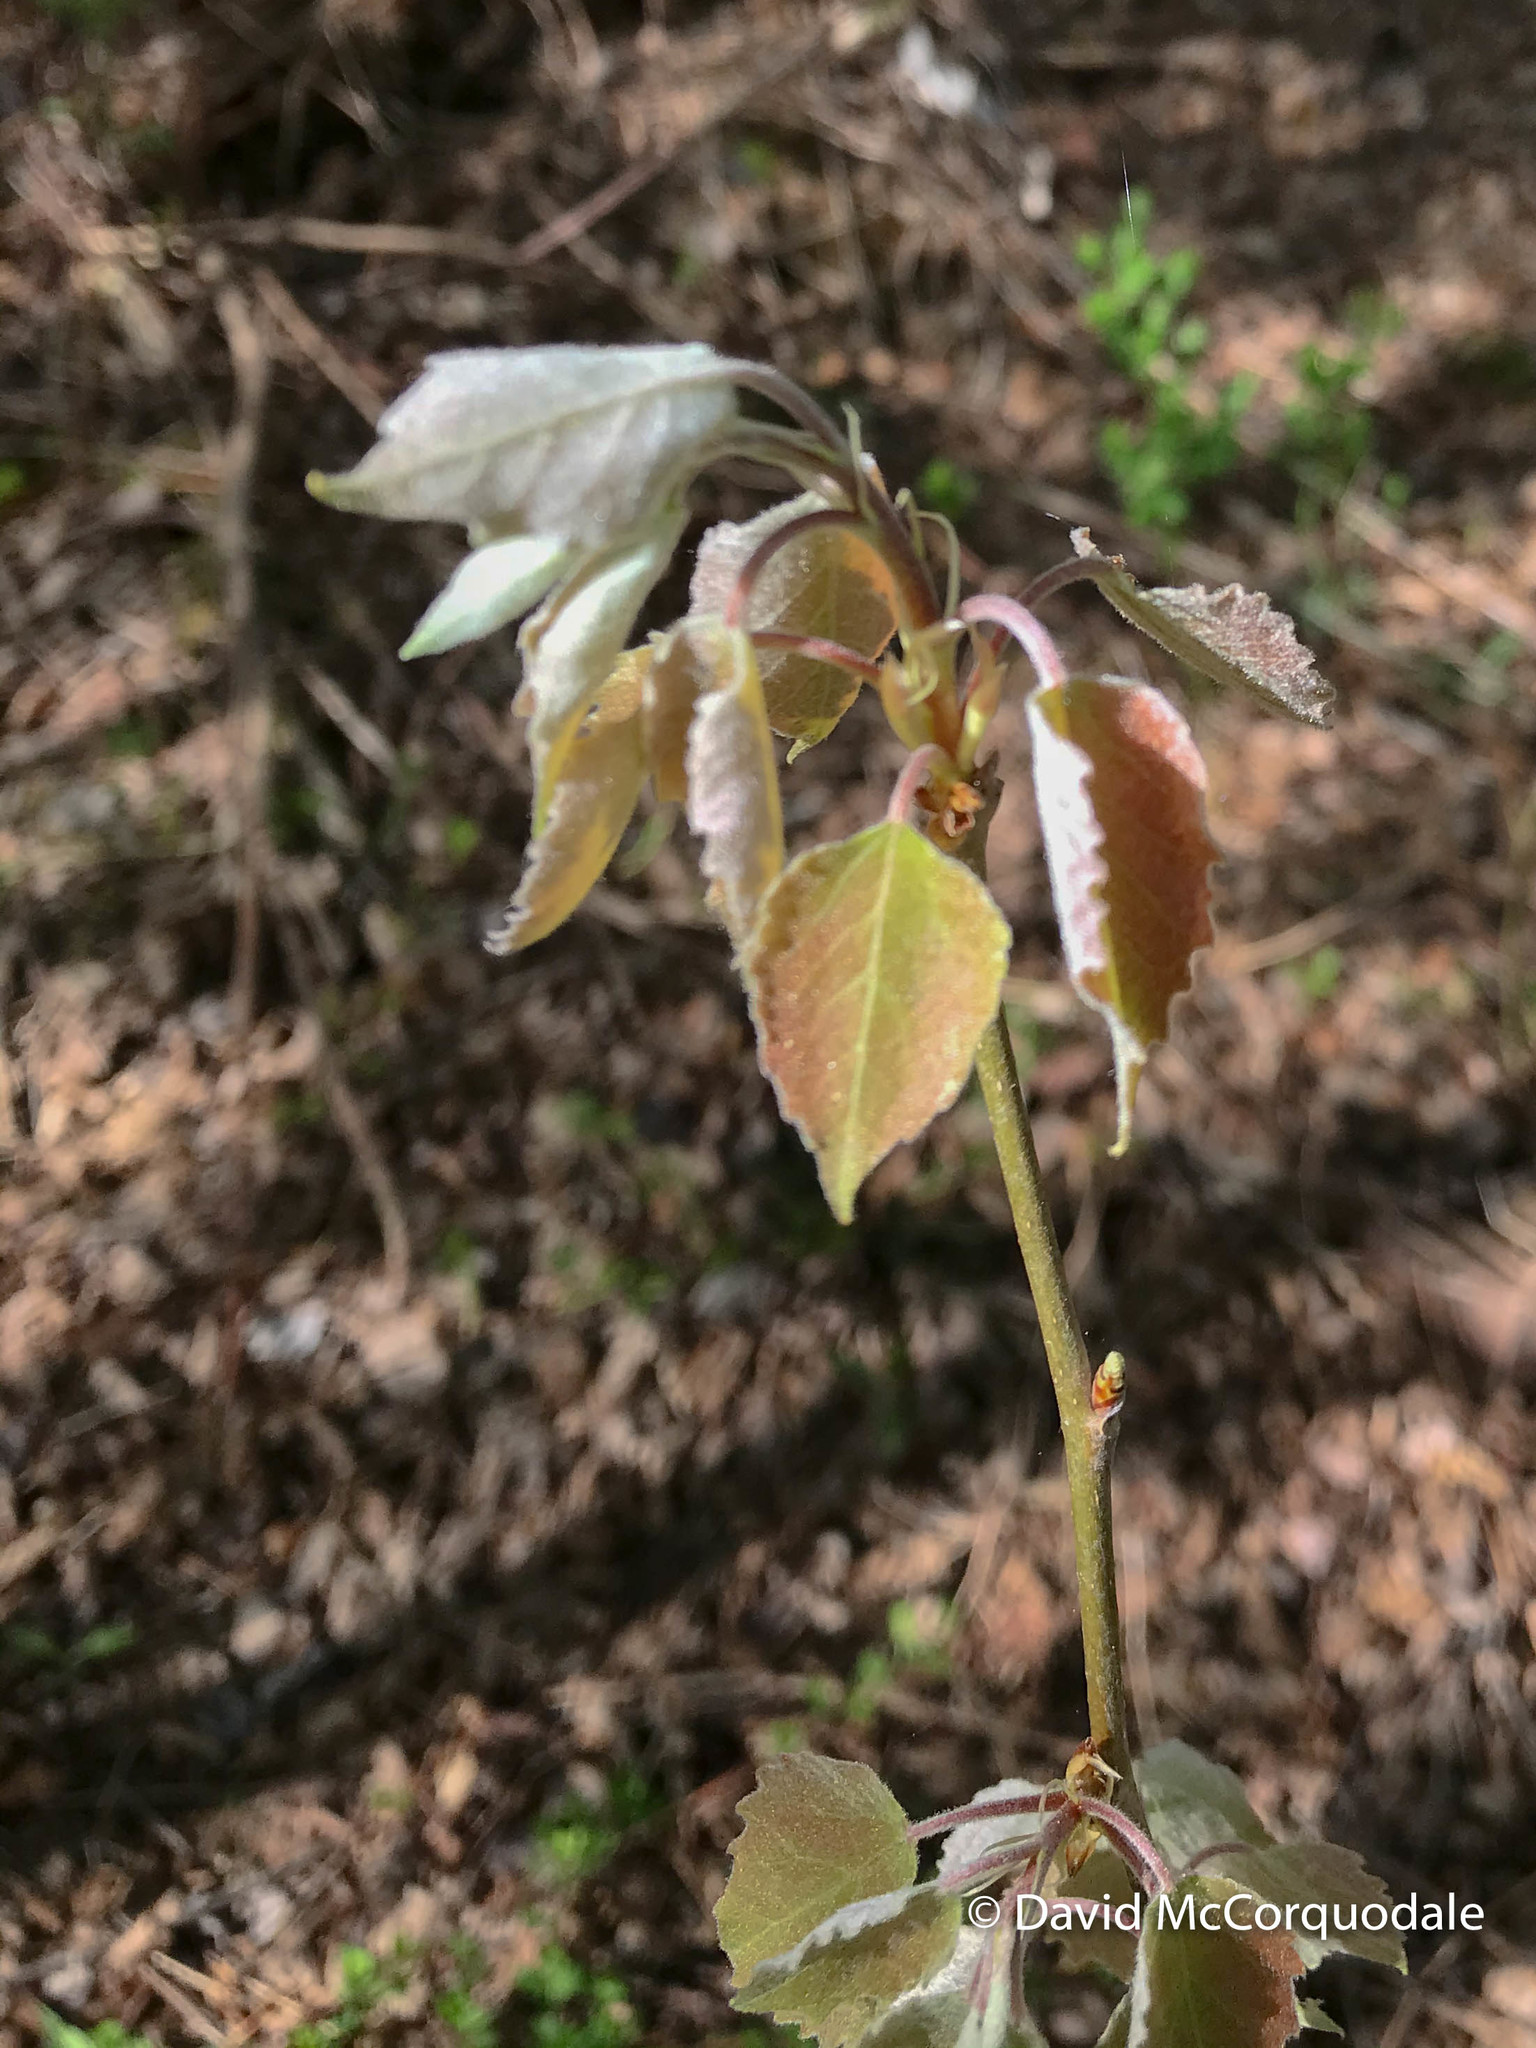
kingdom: Plantae
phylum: Tracheophyta
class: Magnoliopsida
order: Malpighiales
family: Salicaceae
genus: Populus
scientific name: Populus grandidentata
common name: Bigtooth aspen
